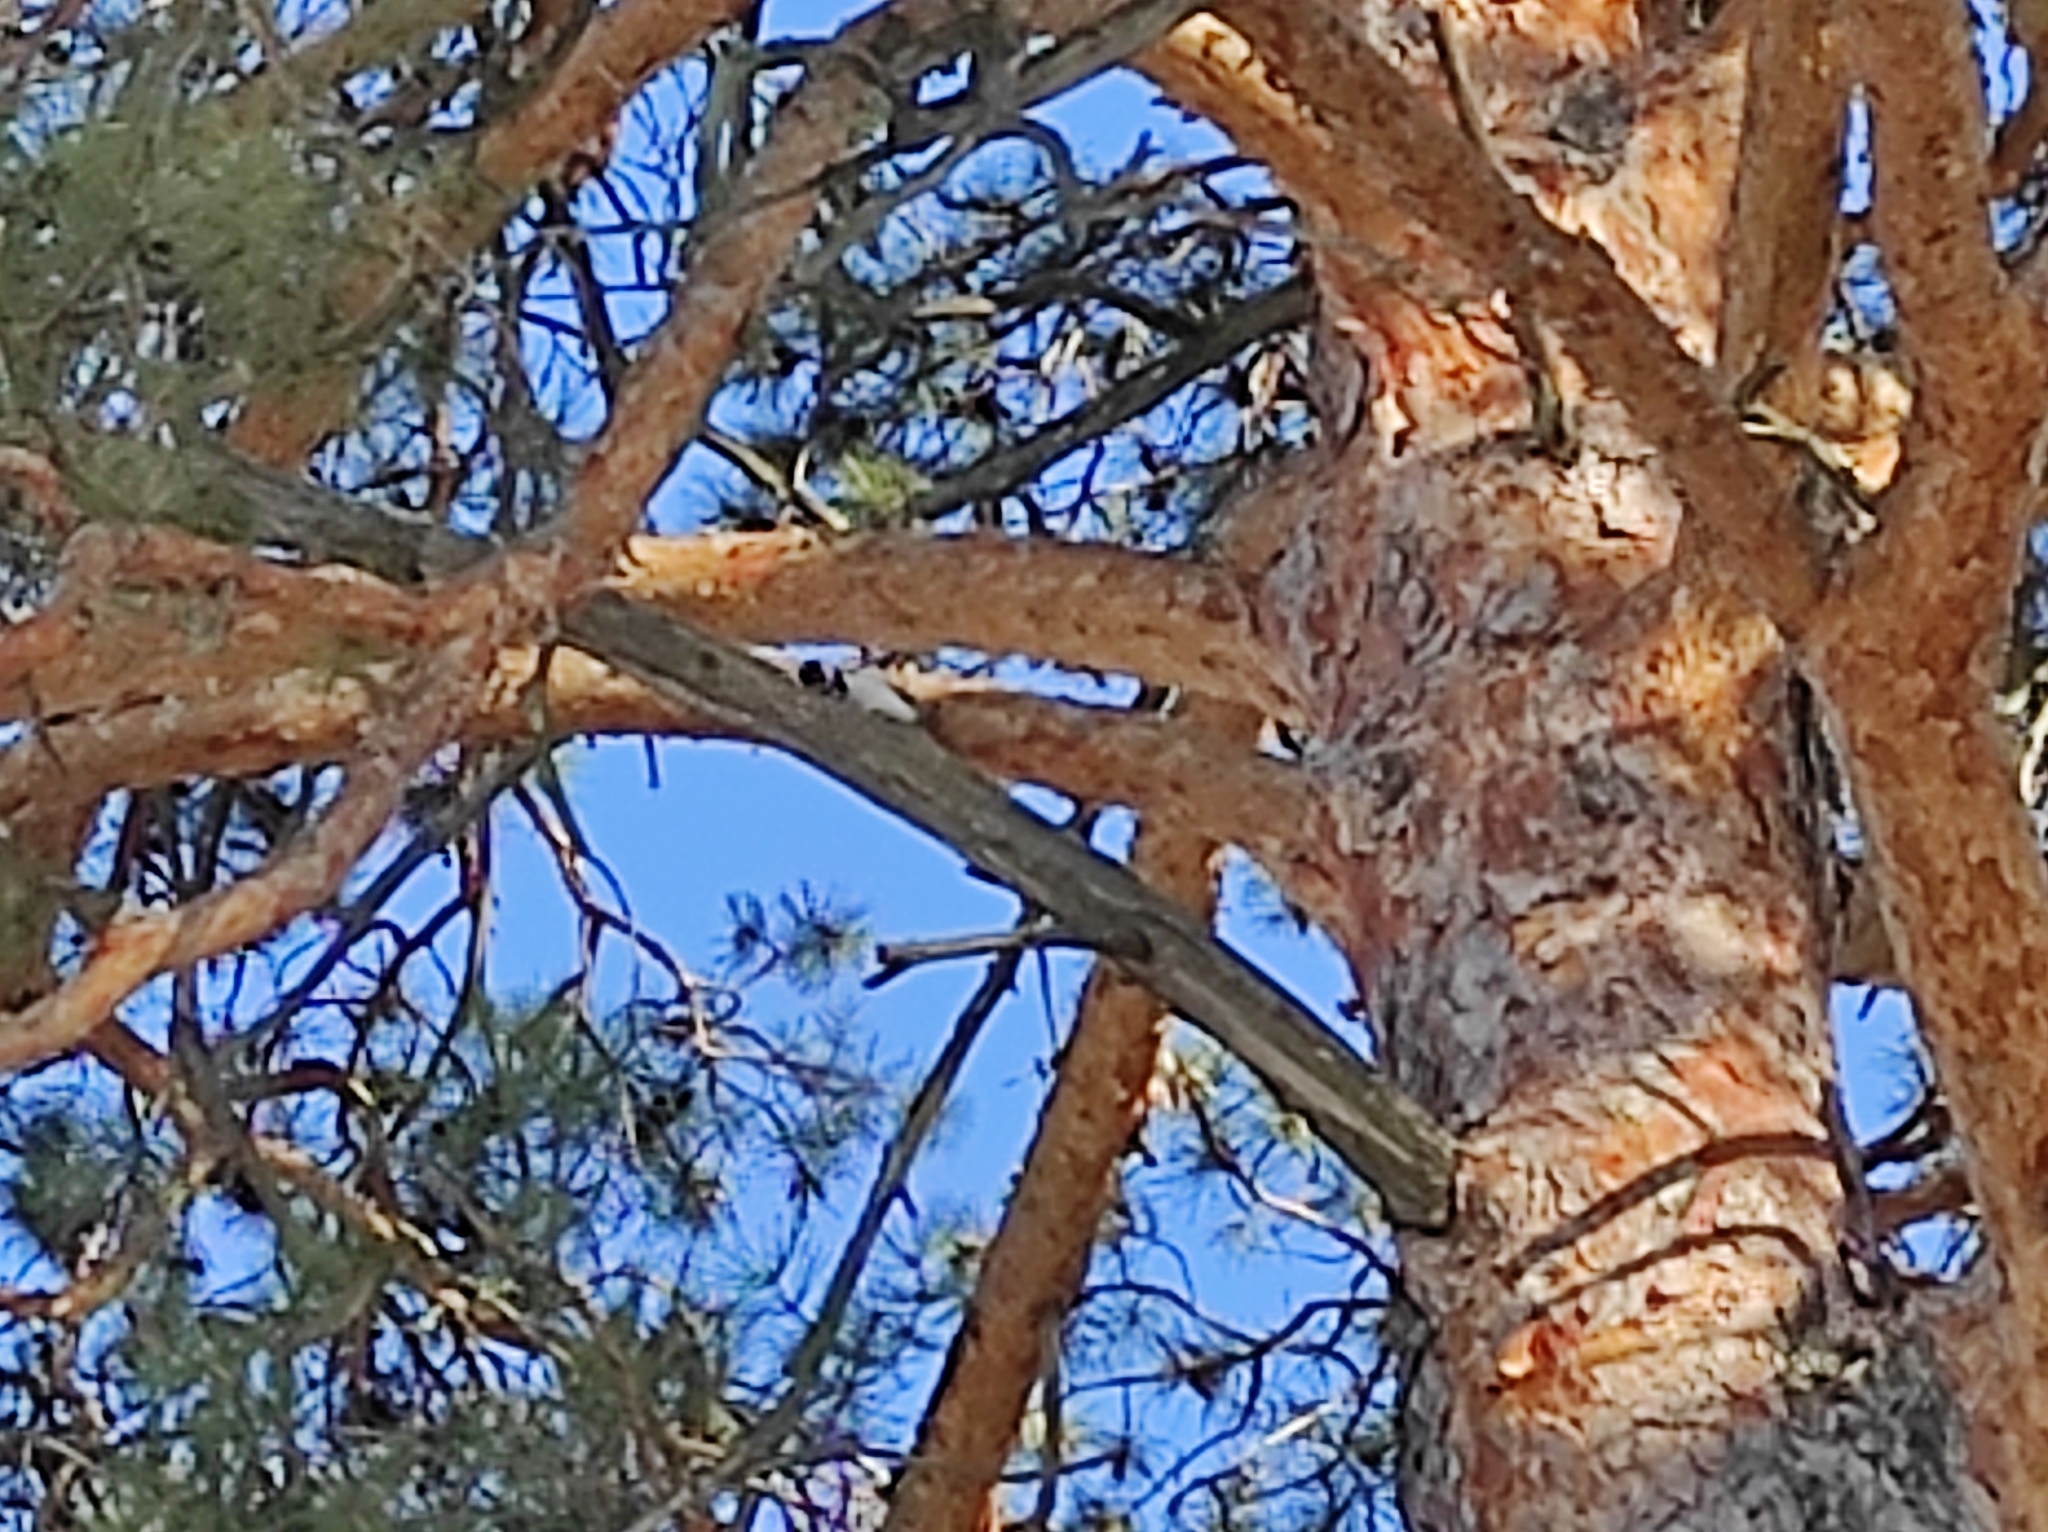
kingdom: Plantae
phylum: Tracheophyta
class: Pinopsida
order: Pinales
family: Pinaceae
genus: Pinus
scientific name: Pinus sylvestris
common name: Scots pine
